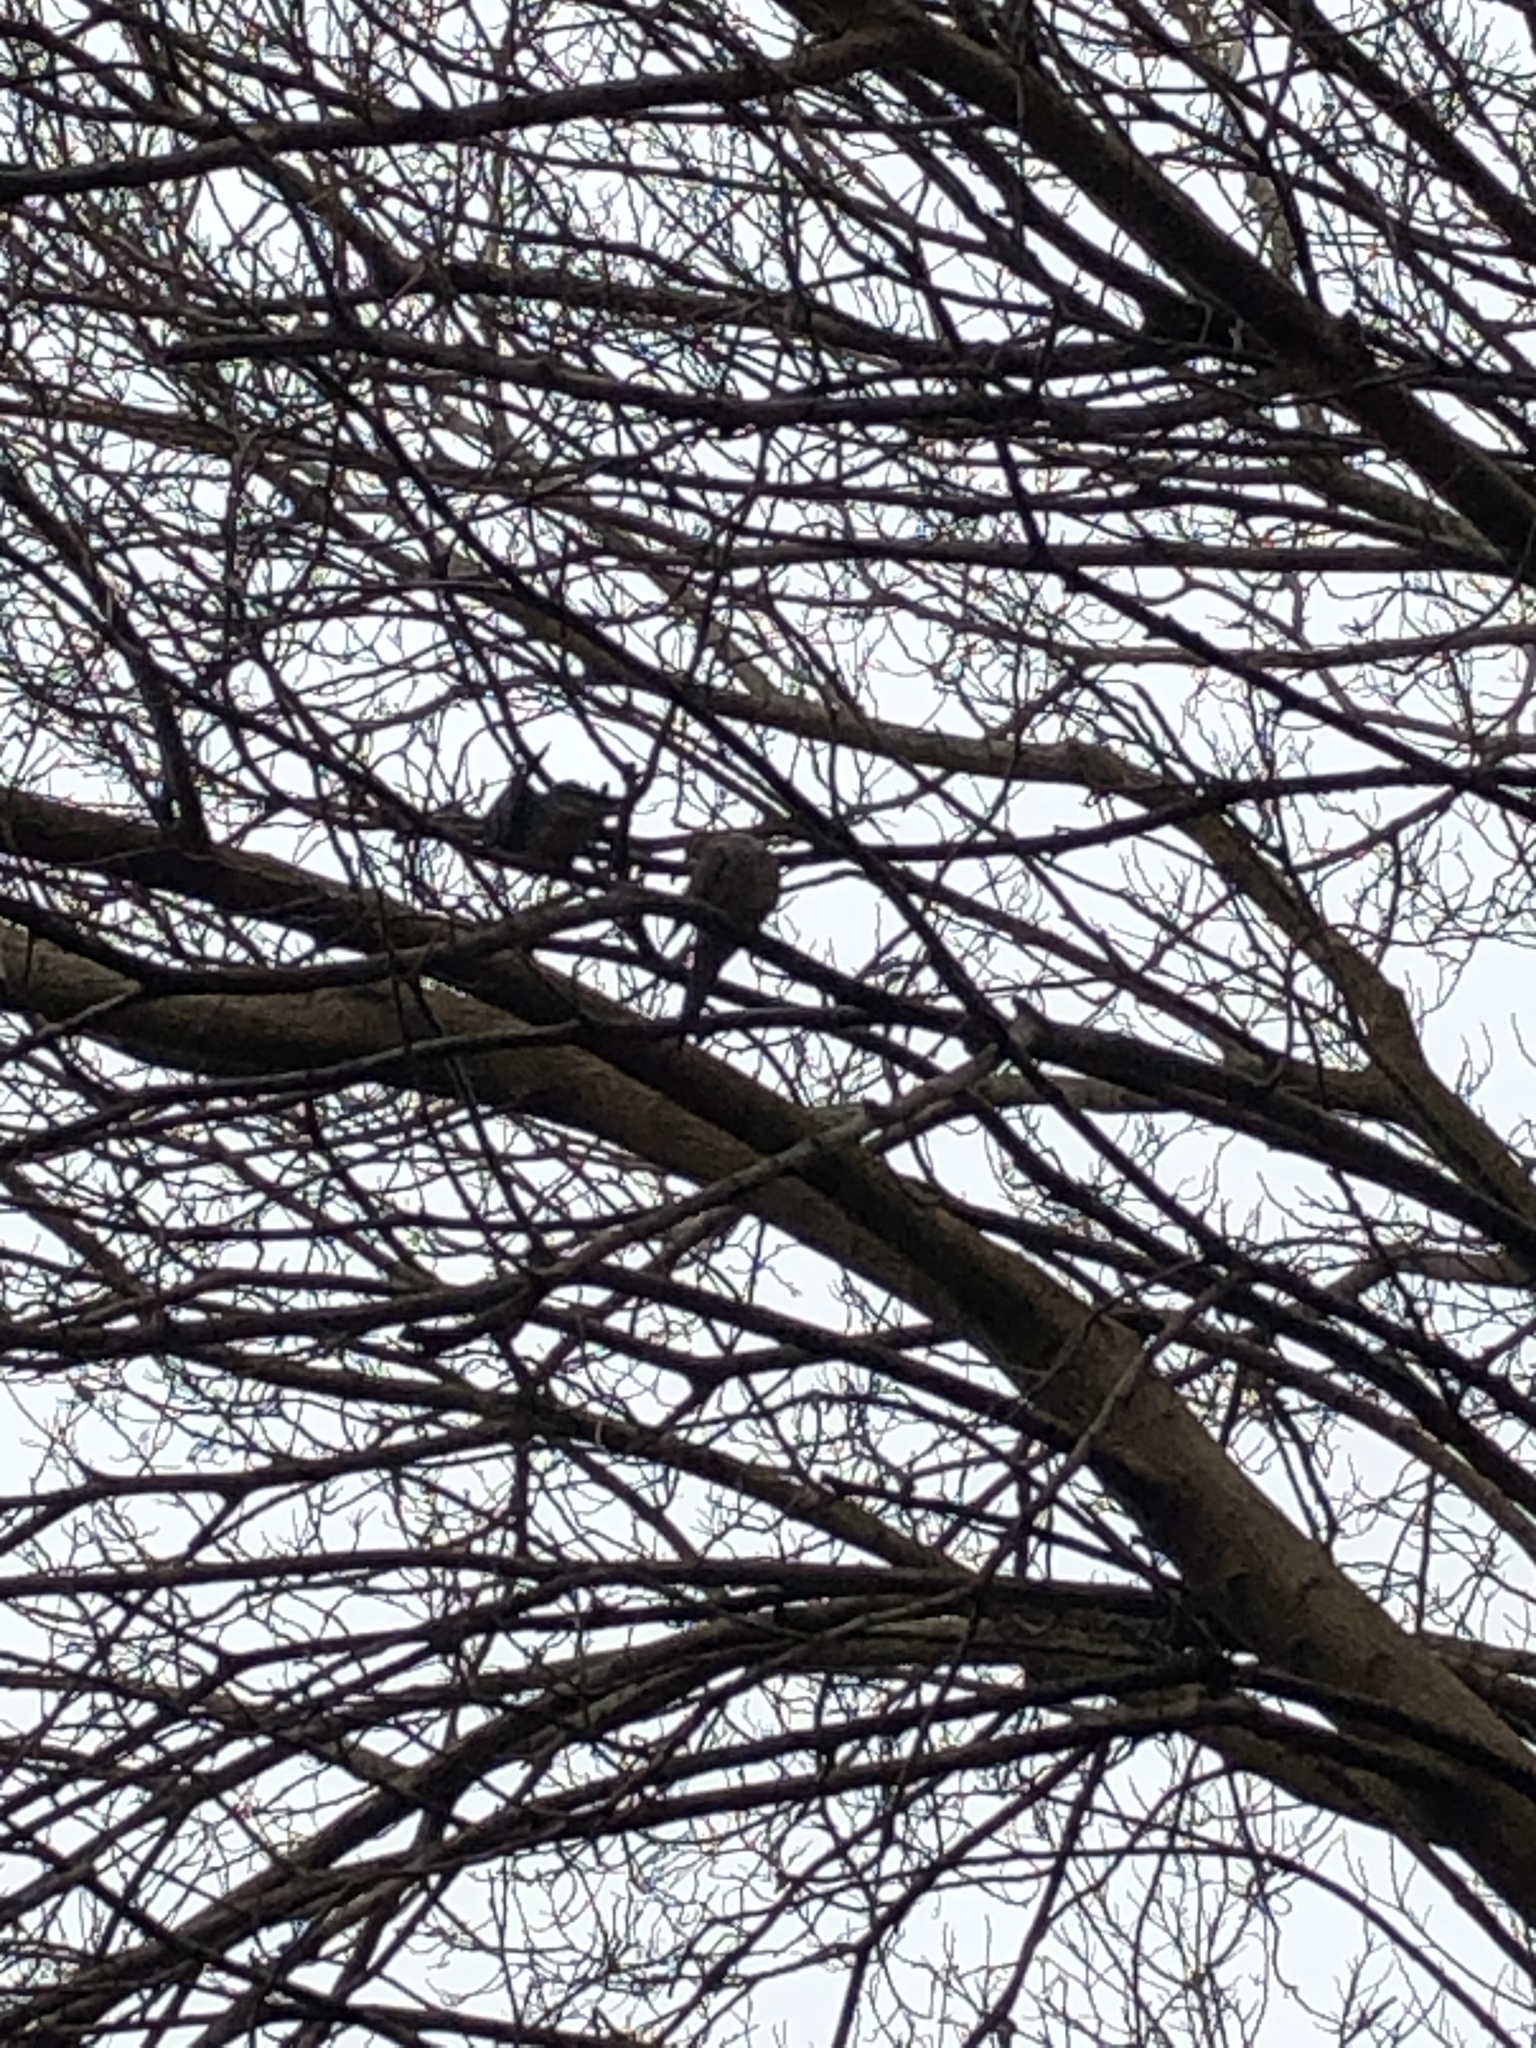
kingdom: Animalia
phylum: Chordata
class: Aves
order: Columbiformes
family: Columbidae
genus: Zenaida
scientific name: Zenaida macroura
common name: Mourning dove
